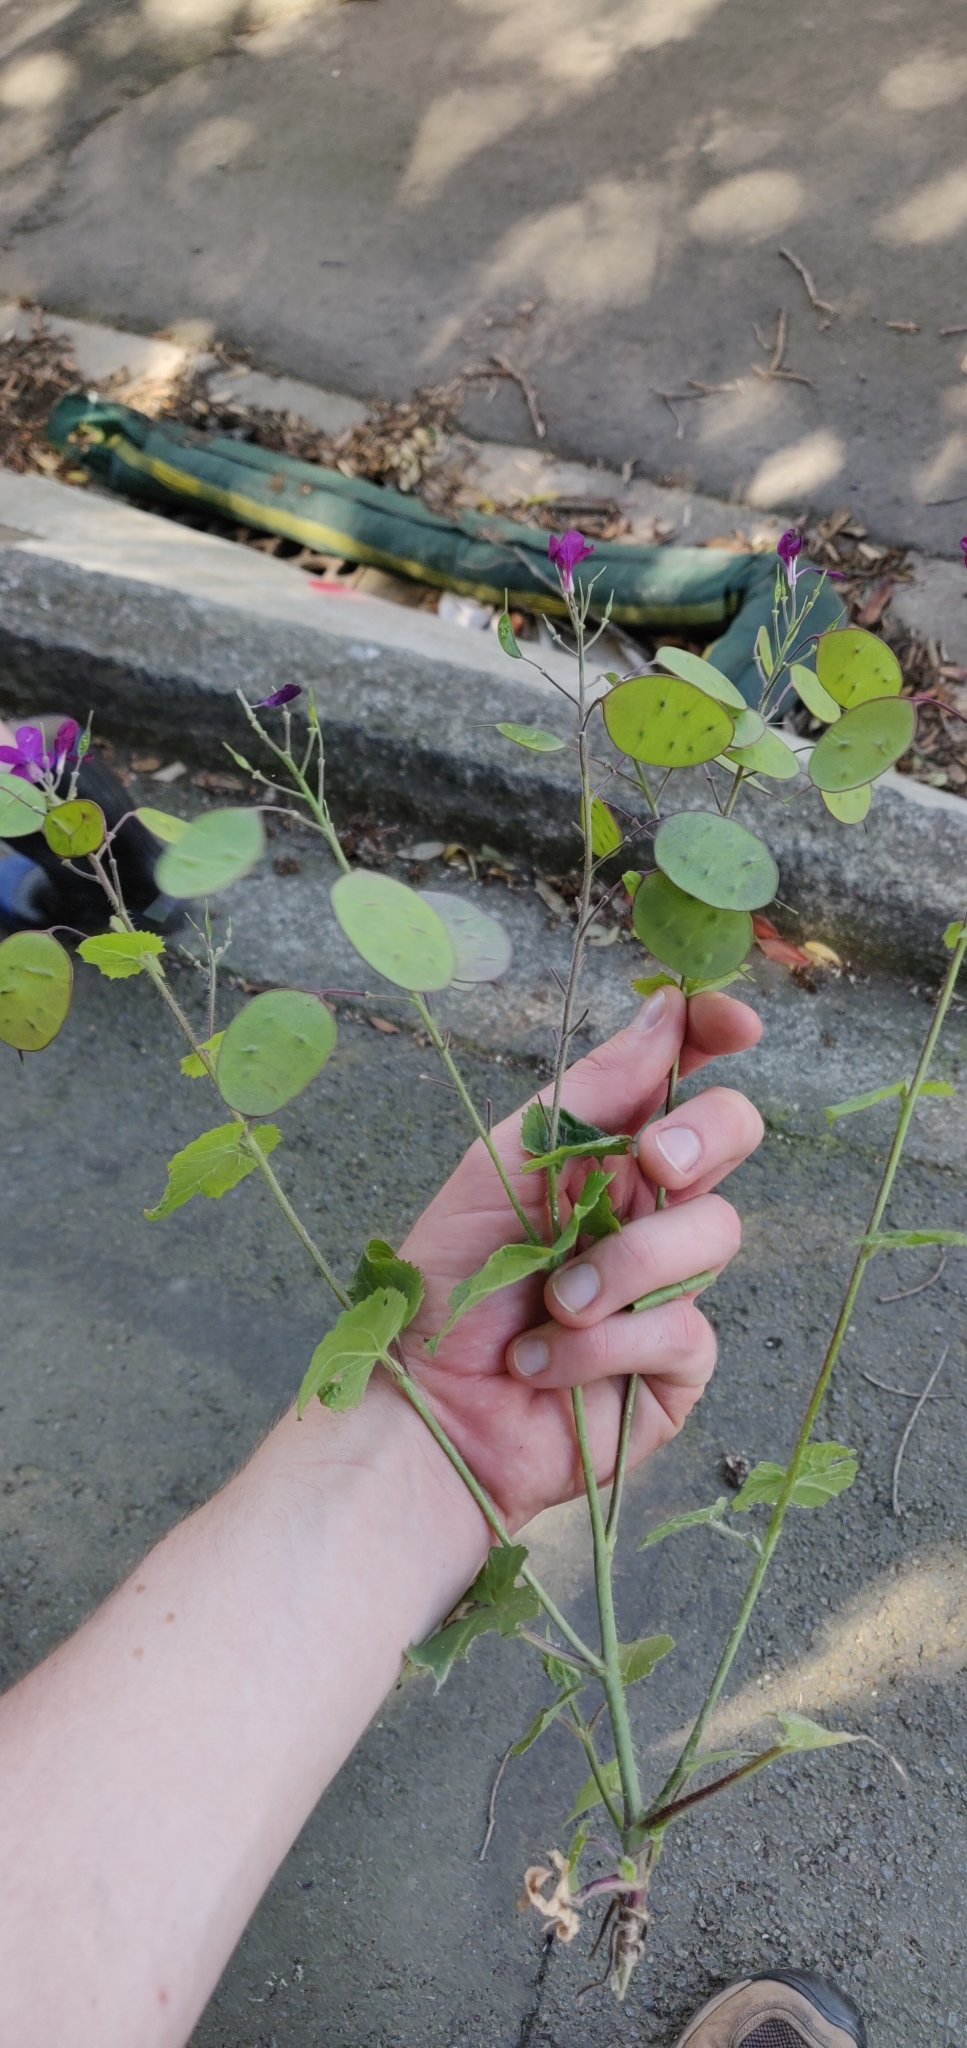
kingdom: Plantae
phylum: Tracheophyta
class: Magnoliopsida
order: Brassicales
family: Brassicaceae
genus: Lunaria
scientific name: Lunaria annua
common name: Honesty
